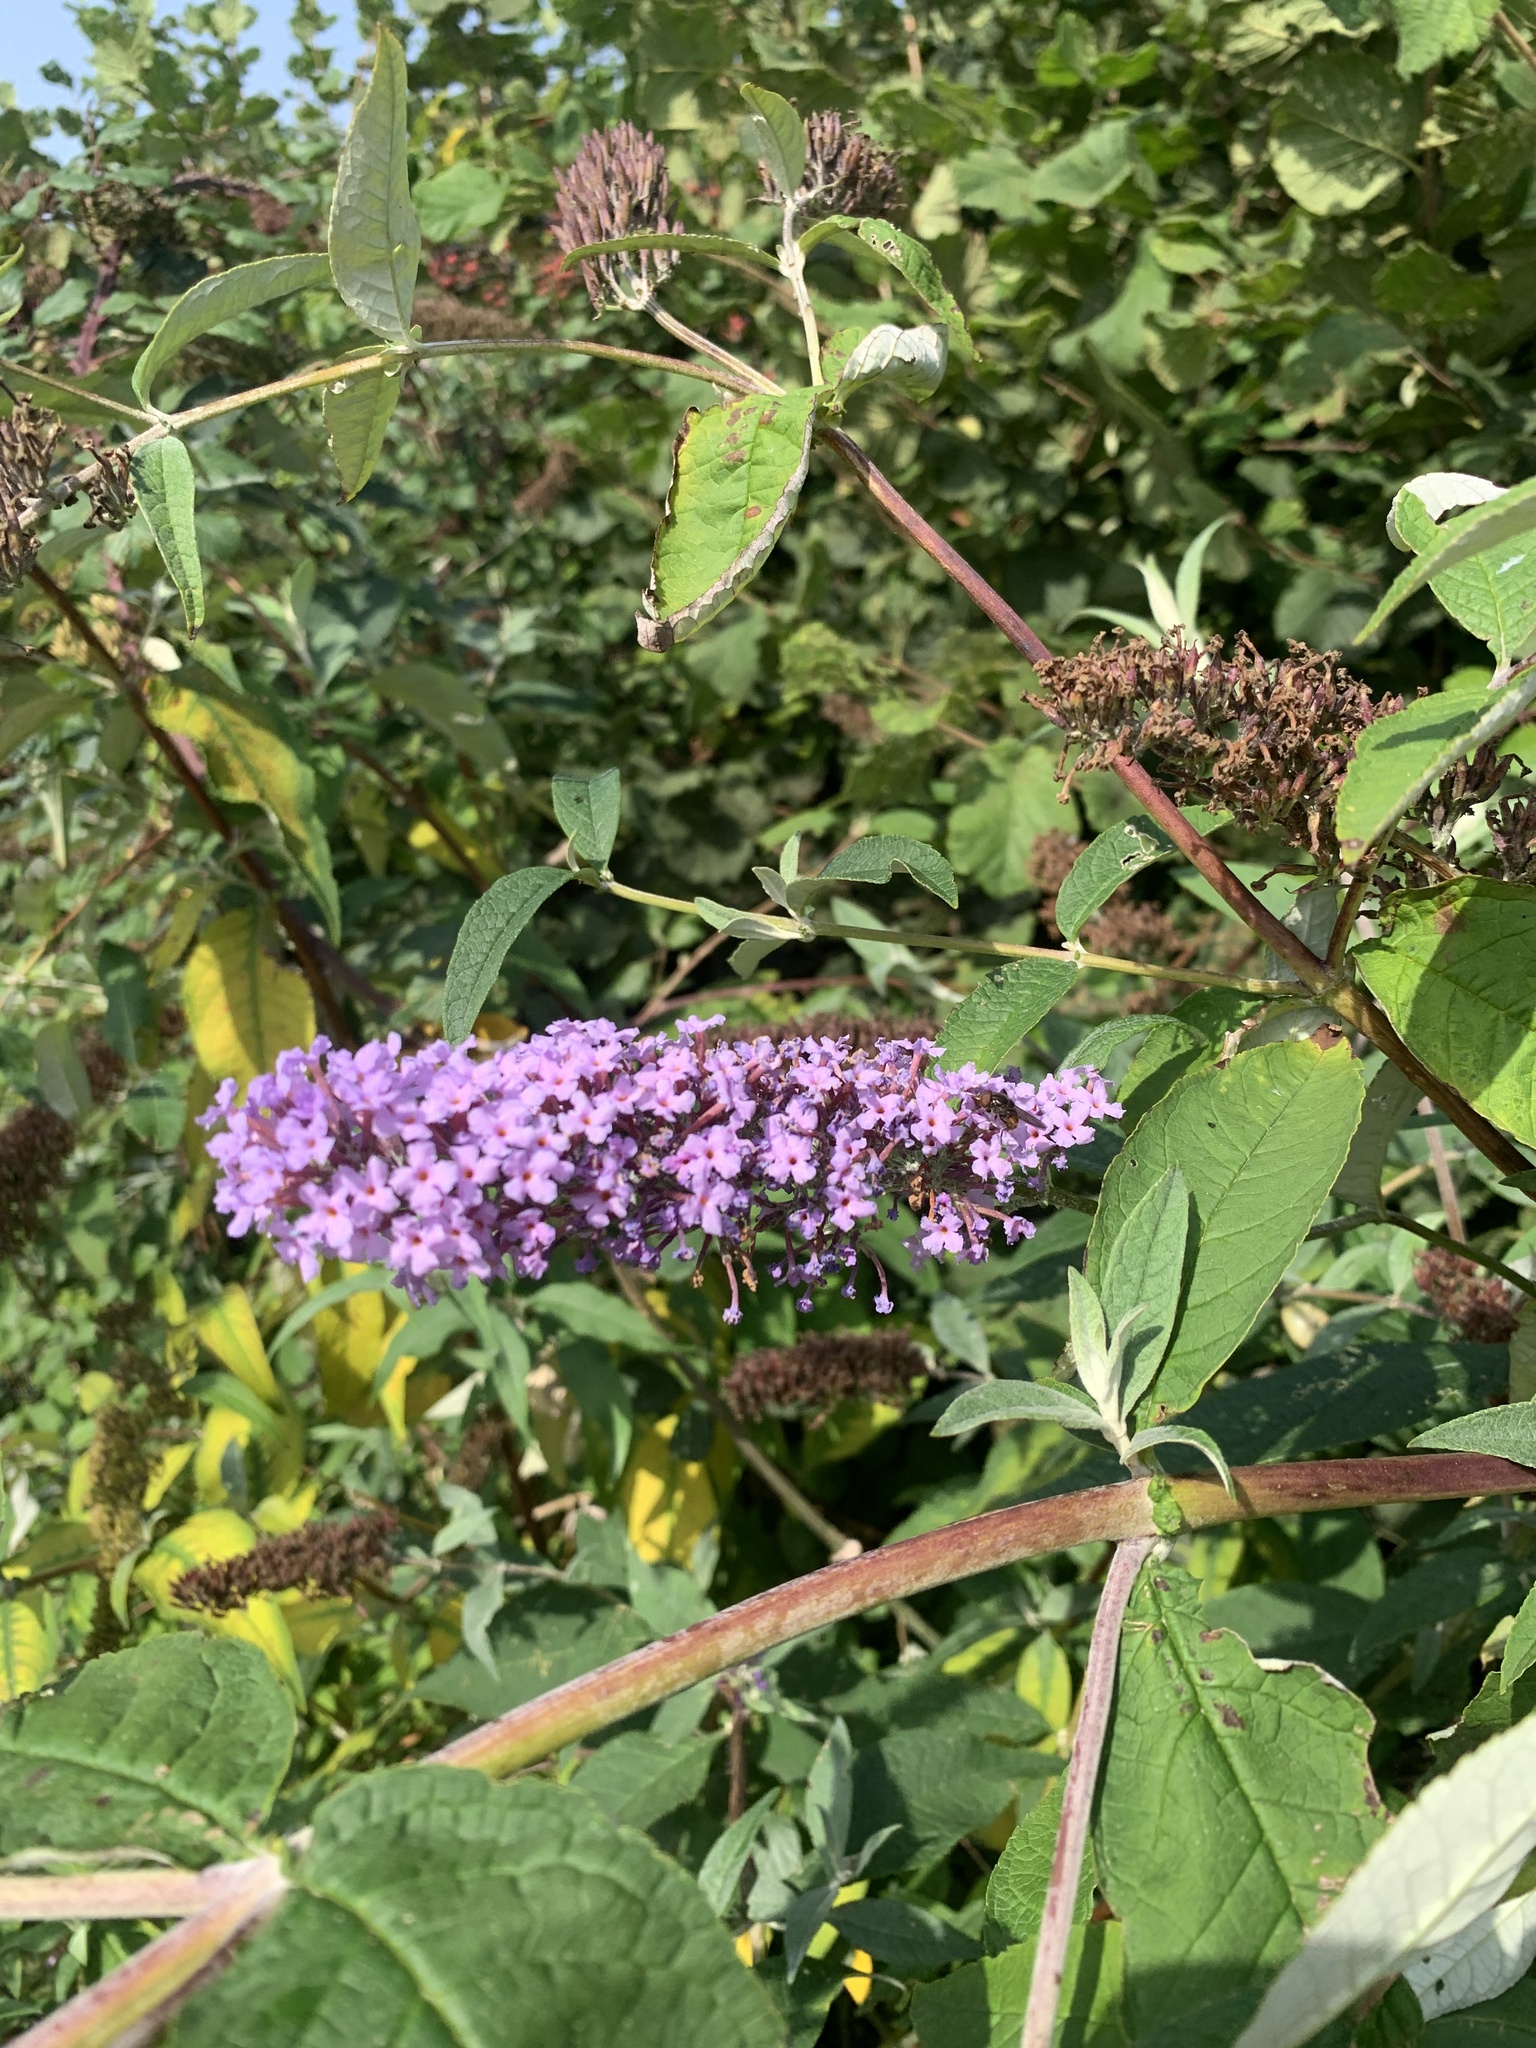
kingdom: Plantae
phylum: Tracheophyta
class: Magnoliopsida
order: Lamiales
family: Scrophulariaceae
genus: Buddleja
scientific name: Buddleja davidii
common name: Butterfly-bush
